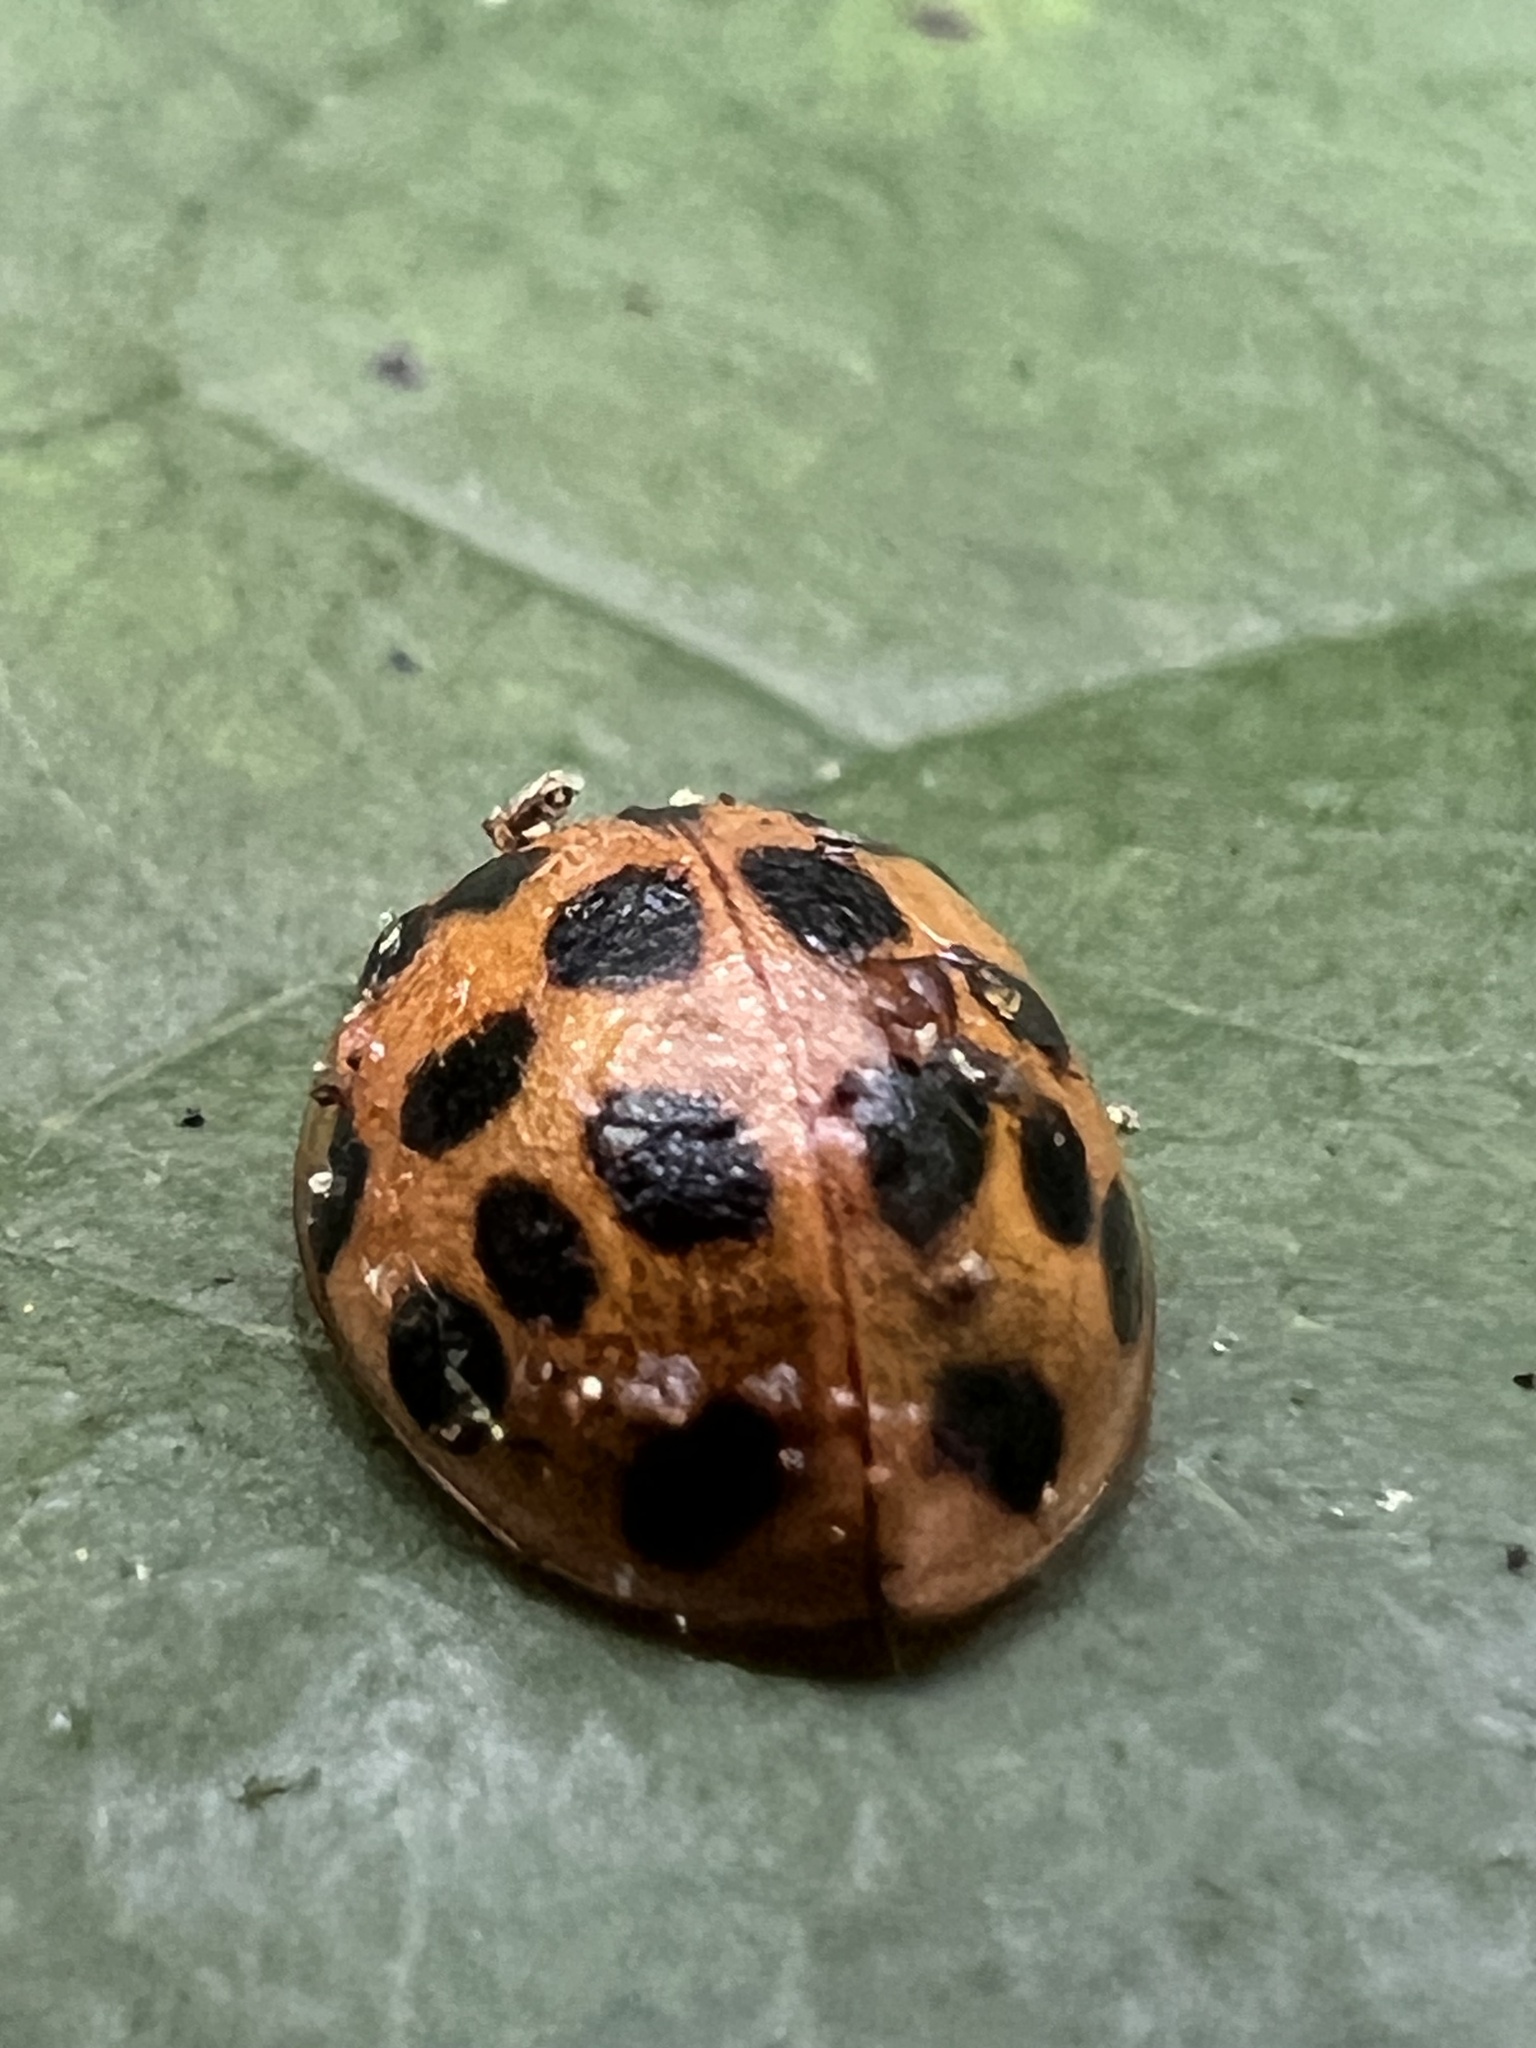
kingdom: Animalia
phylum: Arthropoda
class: Insecta
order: Coleoptera
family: Coccinellidae
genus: Harmonia
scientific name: Harmonia axyridis
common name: Harlequin ladybird
